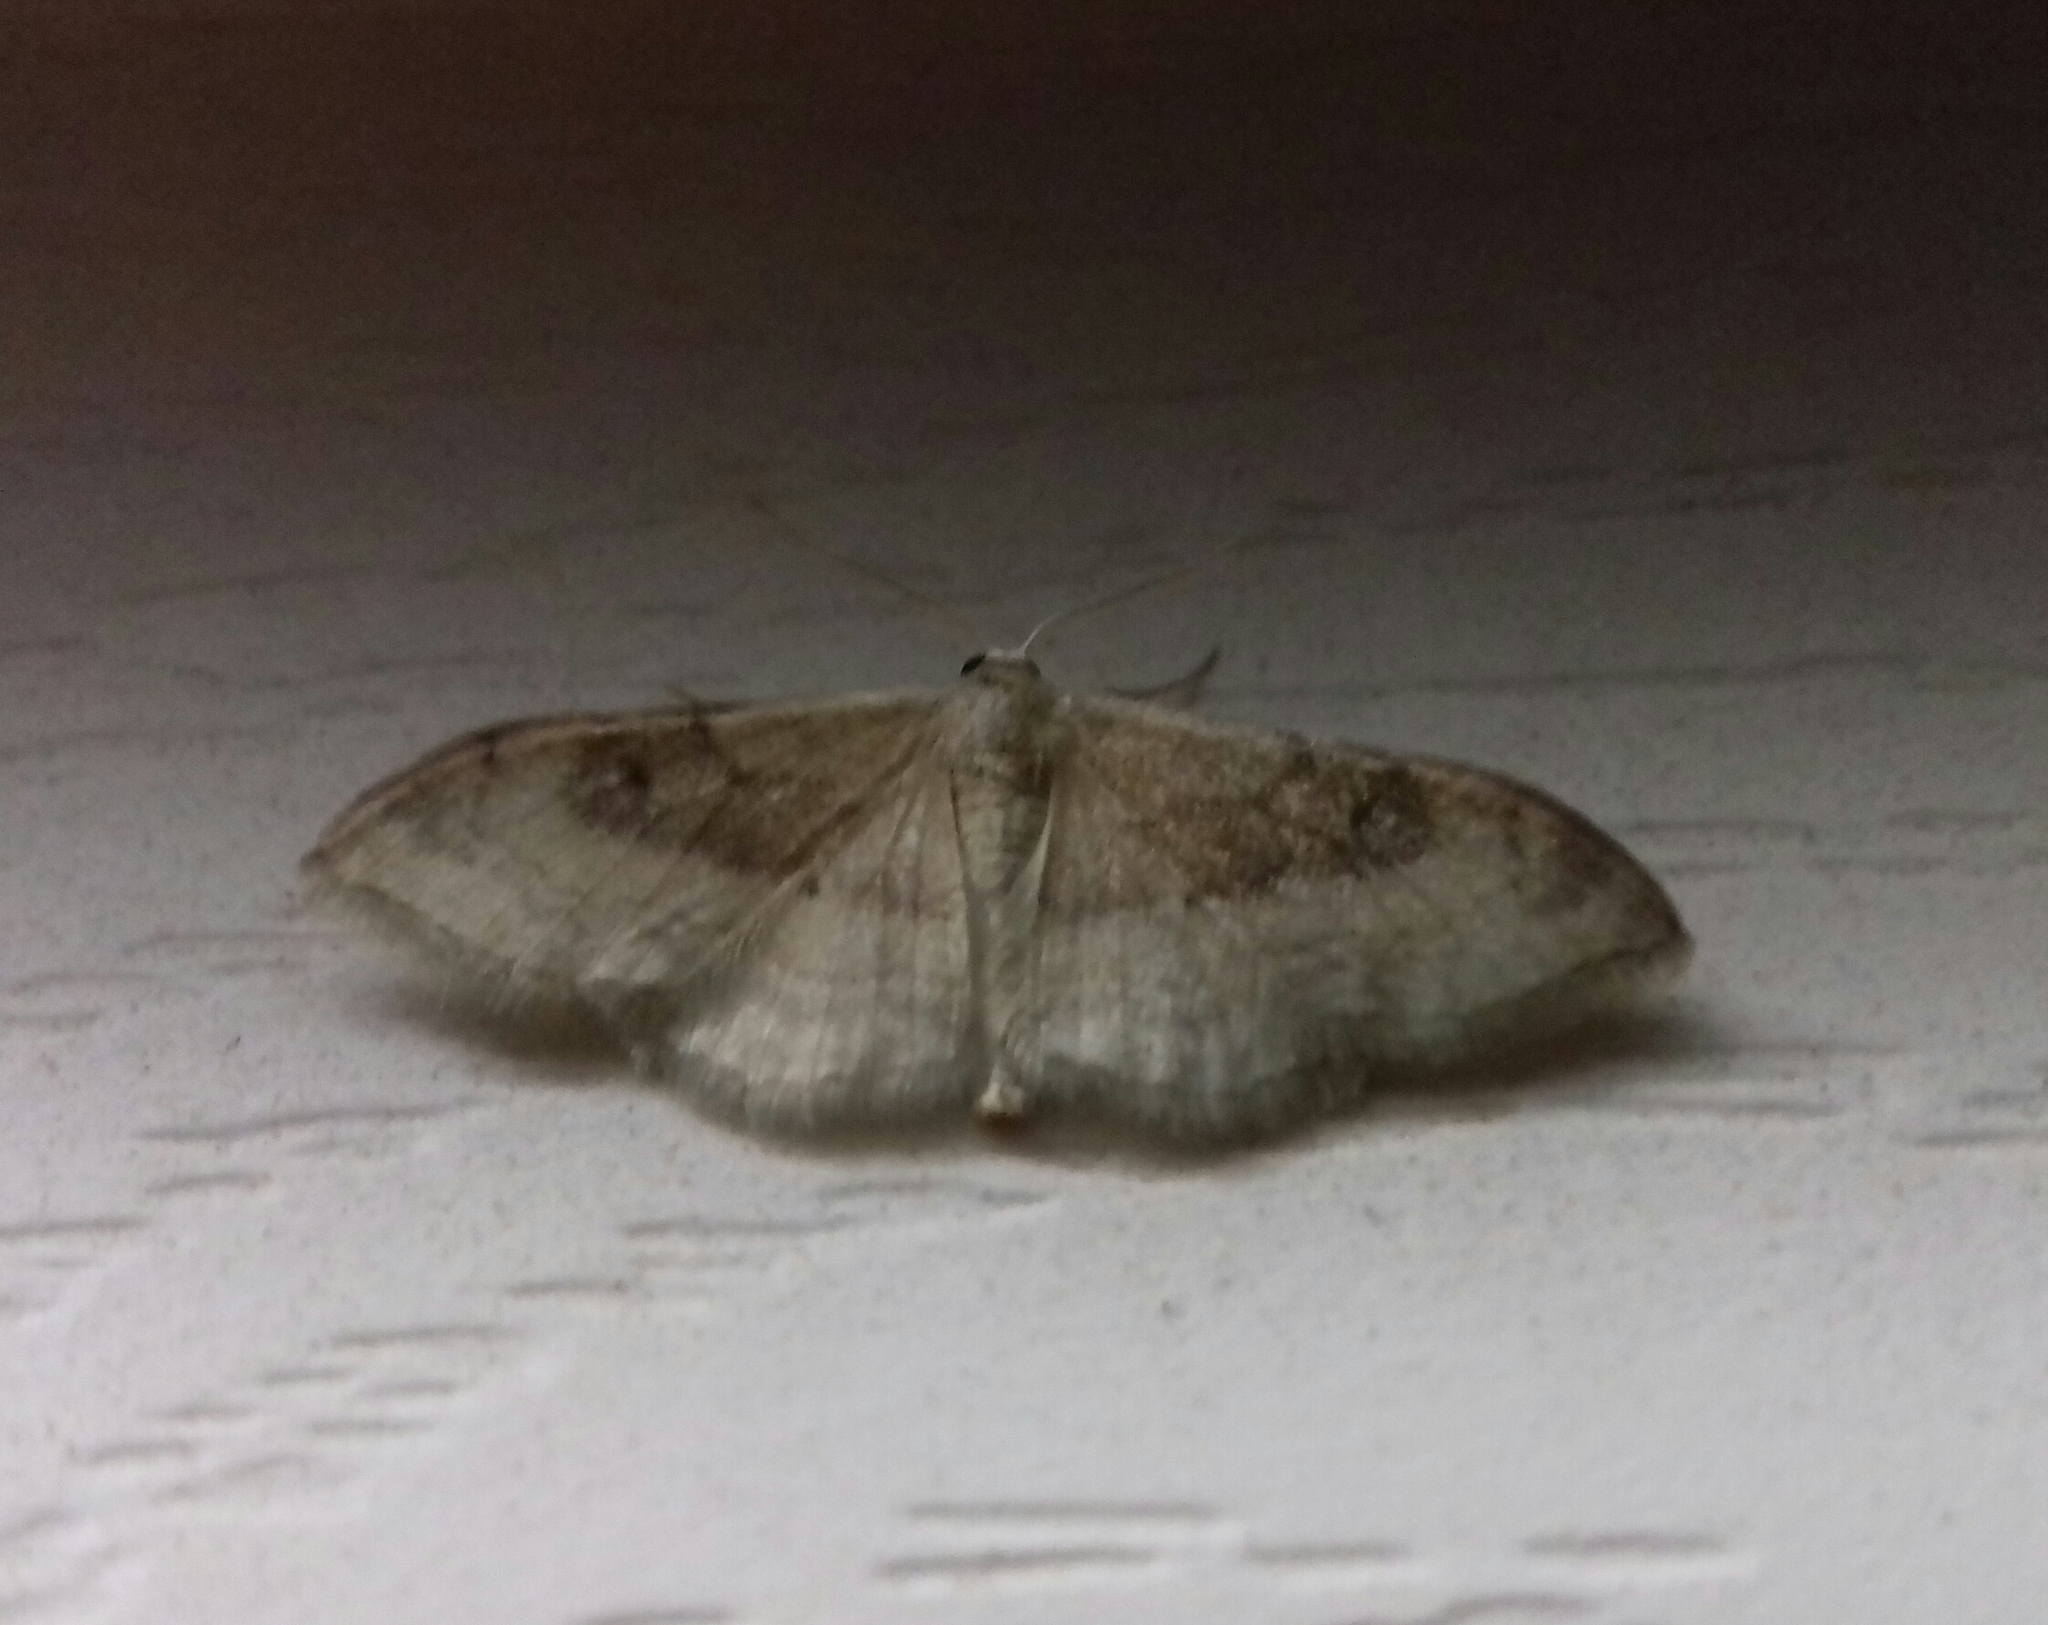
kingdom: Animalia
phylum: Arthropoda
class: Insecta
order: Lepidoptera
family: Geometridae
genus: Idaea
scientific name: Idaea degeneraria
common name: Portland ribbon wave
